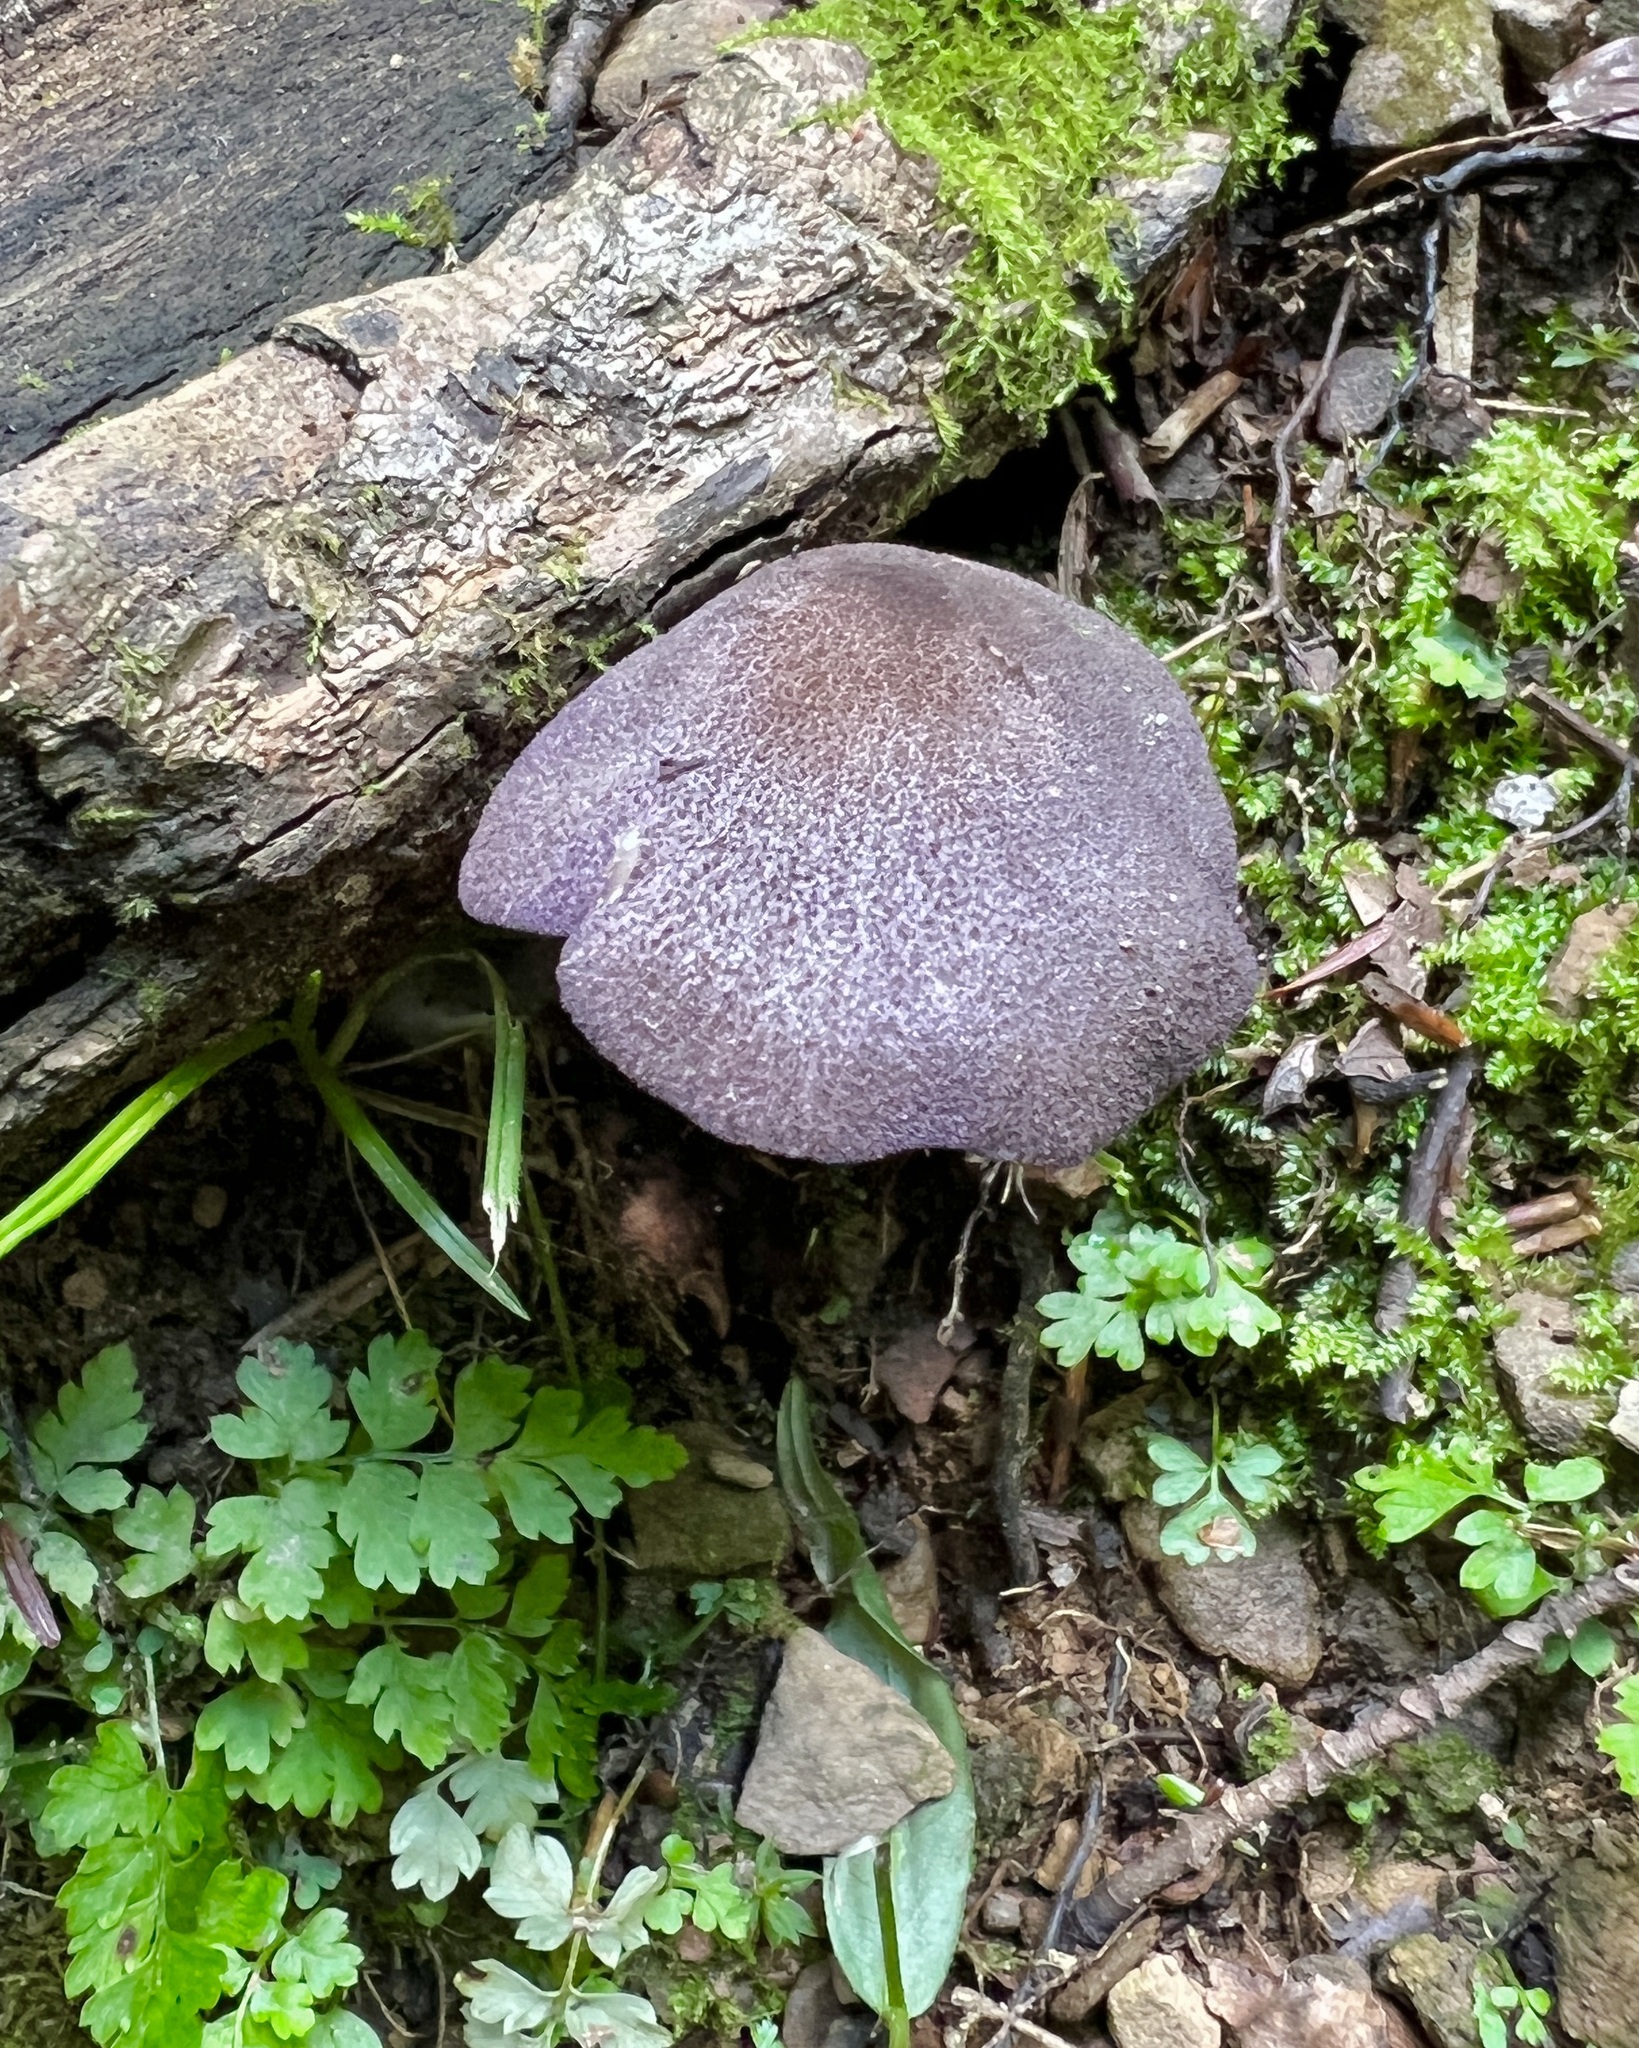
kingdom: Fungi
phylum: Basidiomycota
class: Agaricomycetes
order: Agaricales
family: Entolomataceae
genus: Entoloma
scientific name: Entoloma cyaneum
